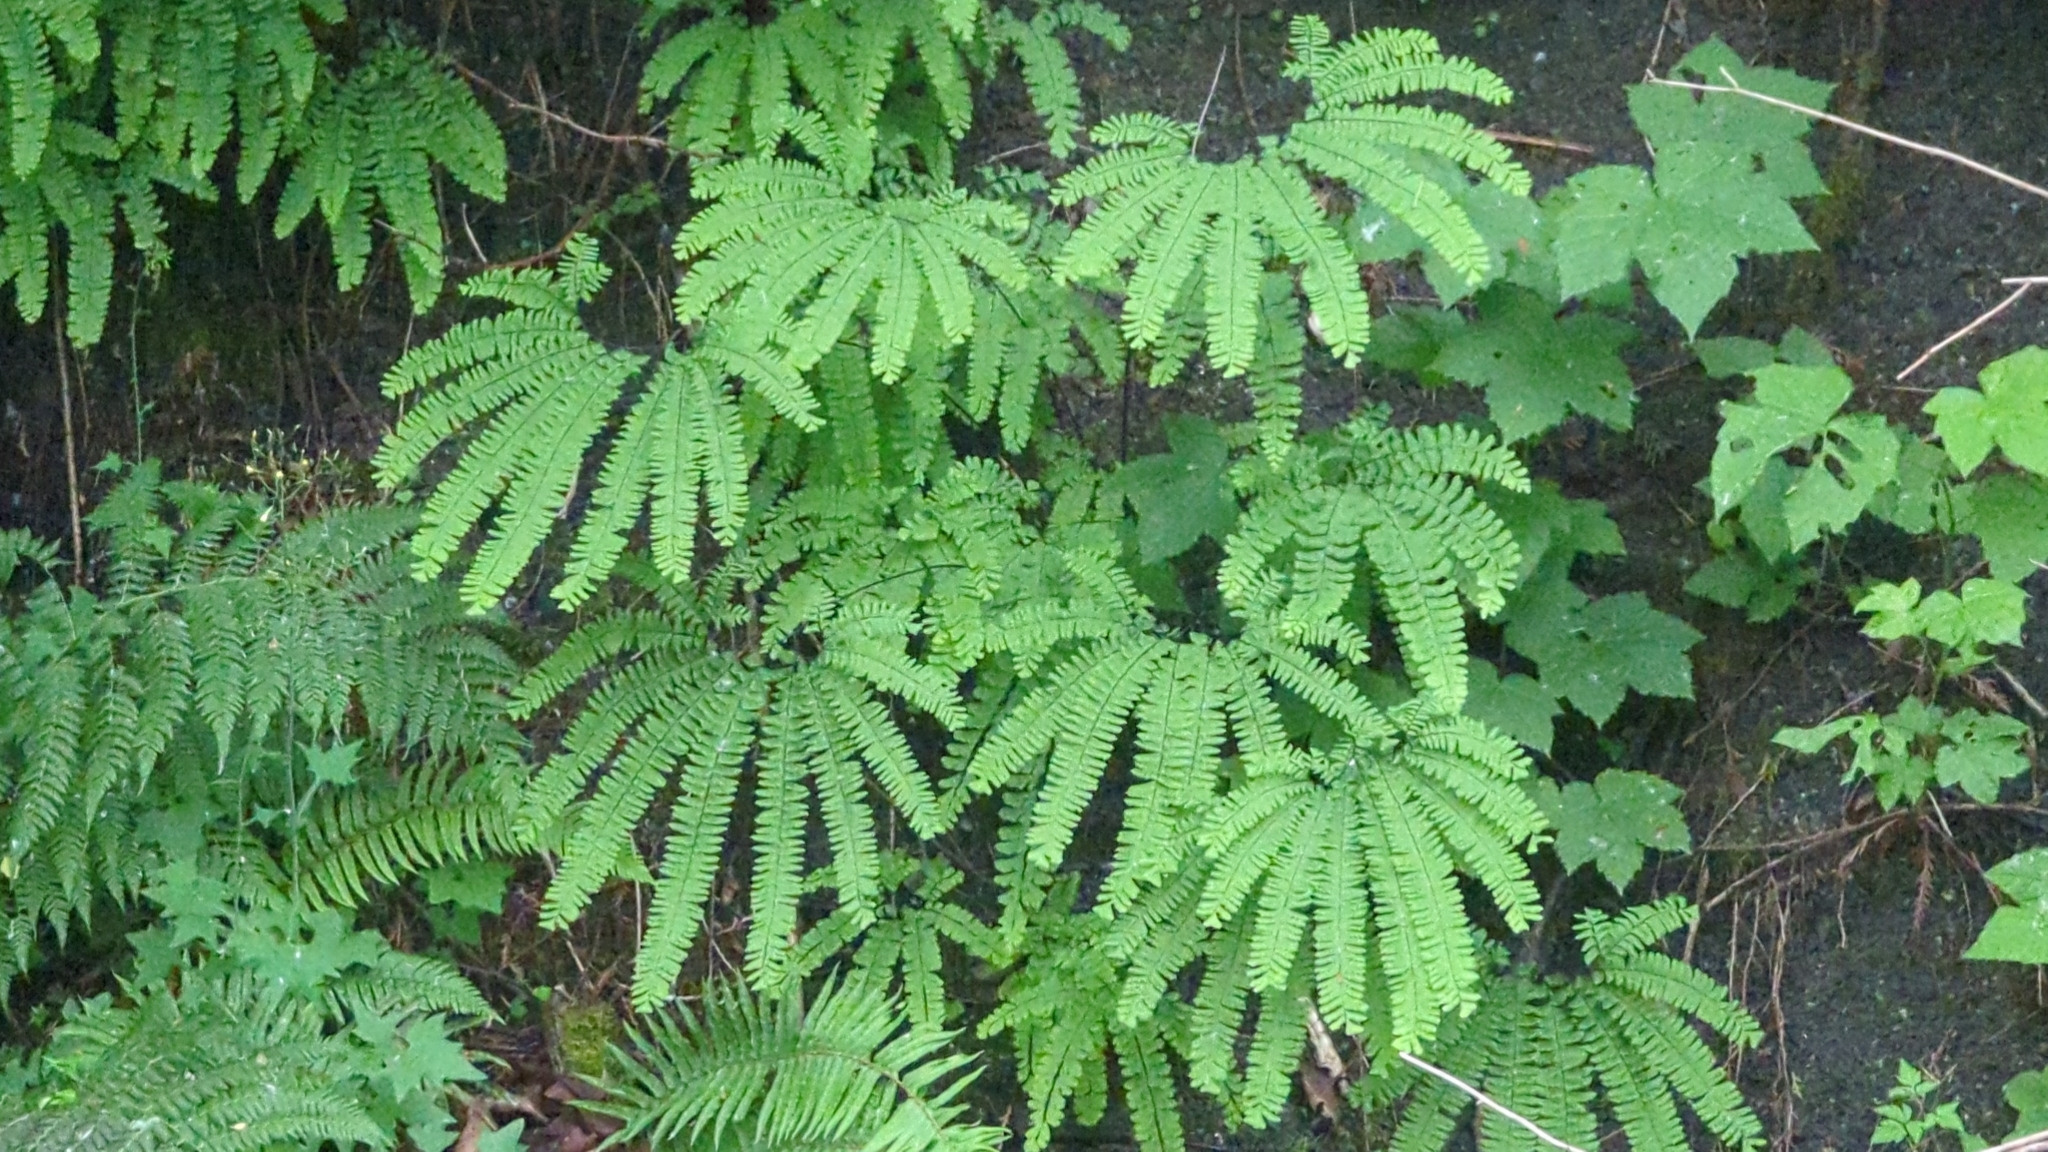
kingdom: Plantae
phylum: Tracheophyta
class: Polypodiopsida
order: Polypodiales
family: Pteridaceae
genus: Adiantum
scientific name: Adiantum aleuticum
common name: Aleutian maidenhair fern
